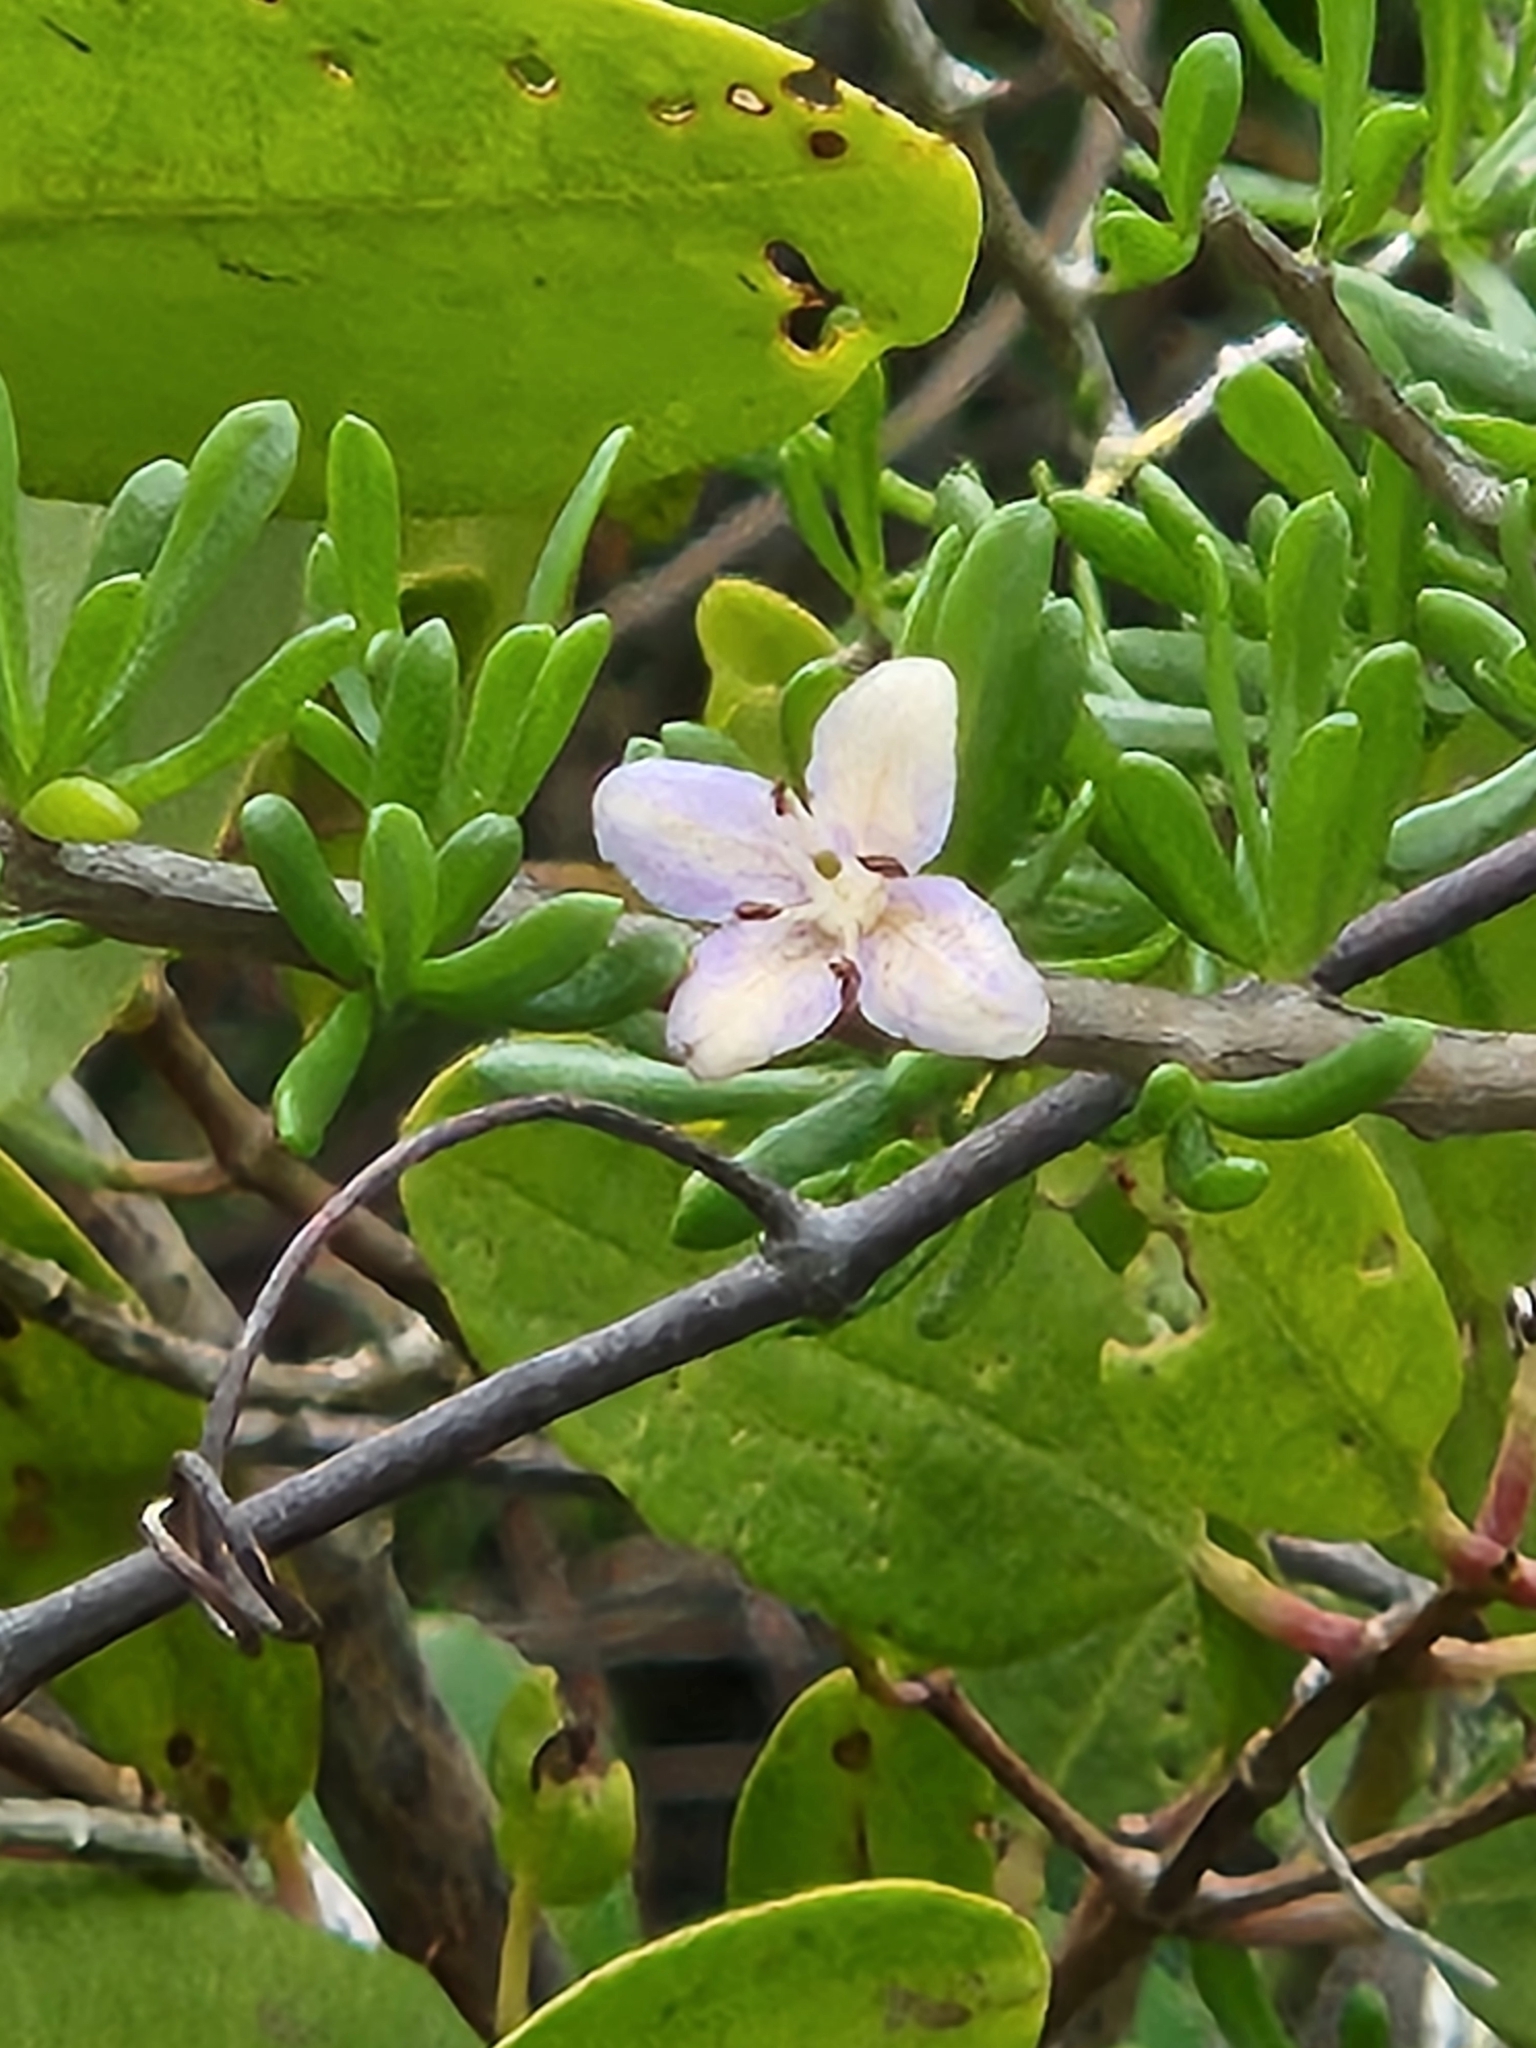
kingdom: Plantae
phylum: Tracheophyta
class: Magnoliopsida
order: Solanales
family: Solanaceae
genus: Lycium
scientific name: Lycium carolinianum
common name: Christmasberry
